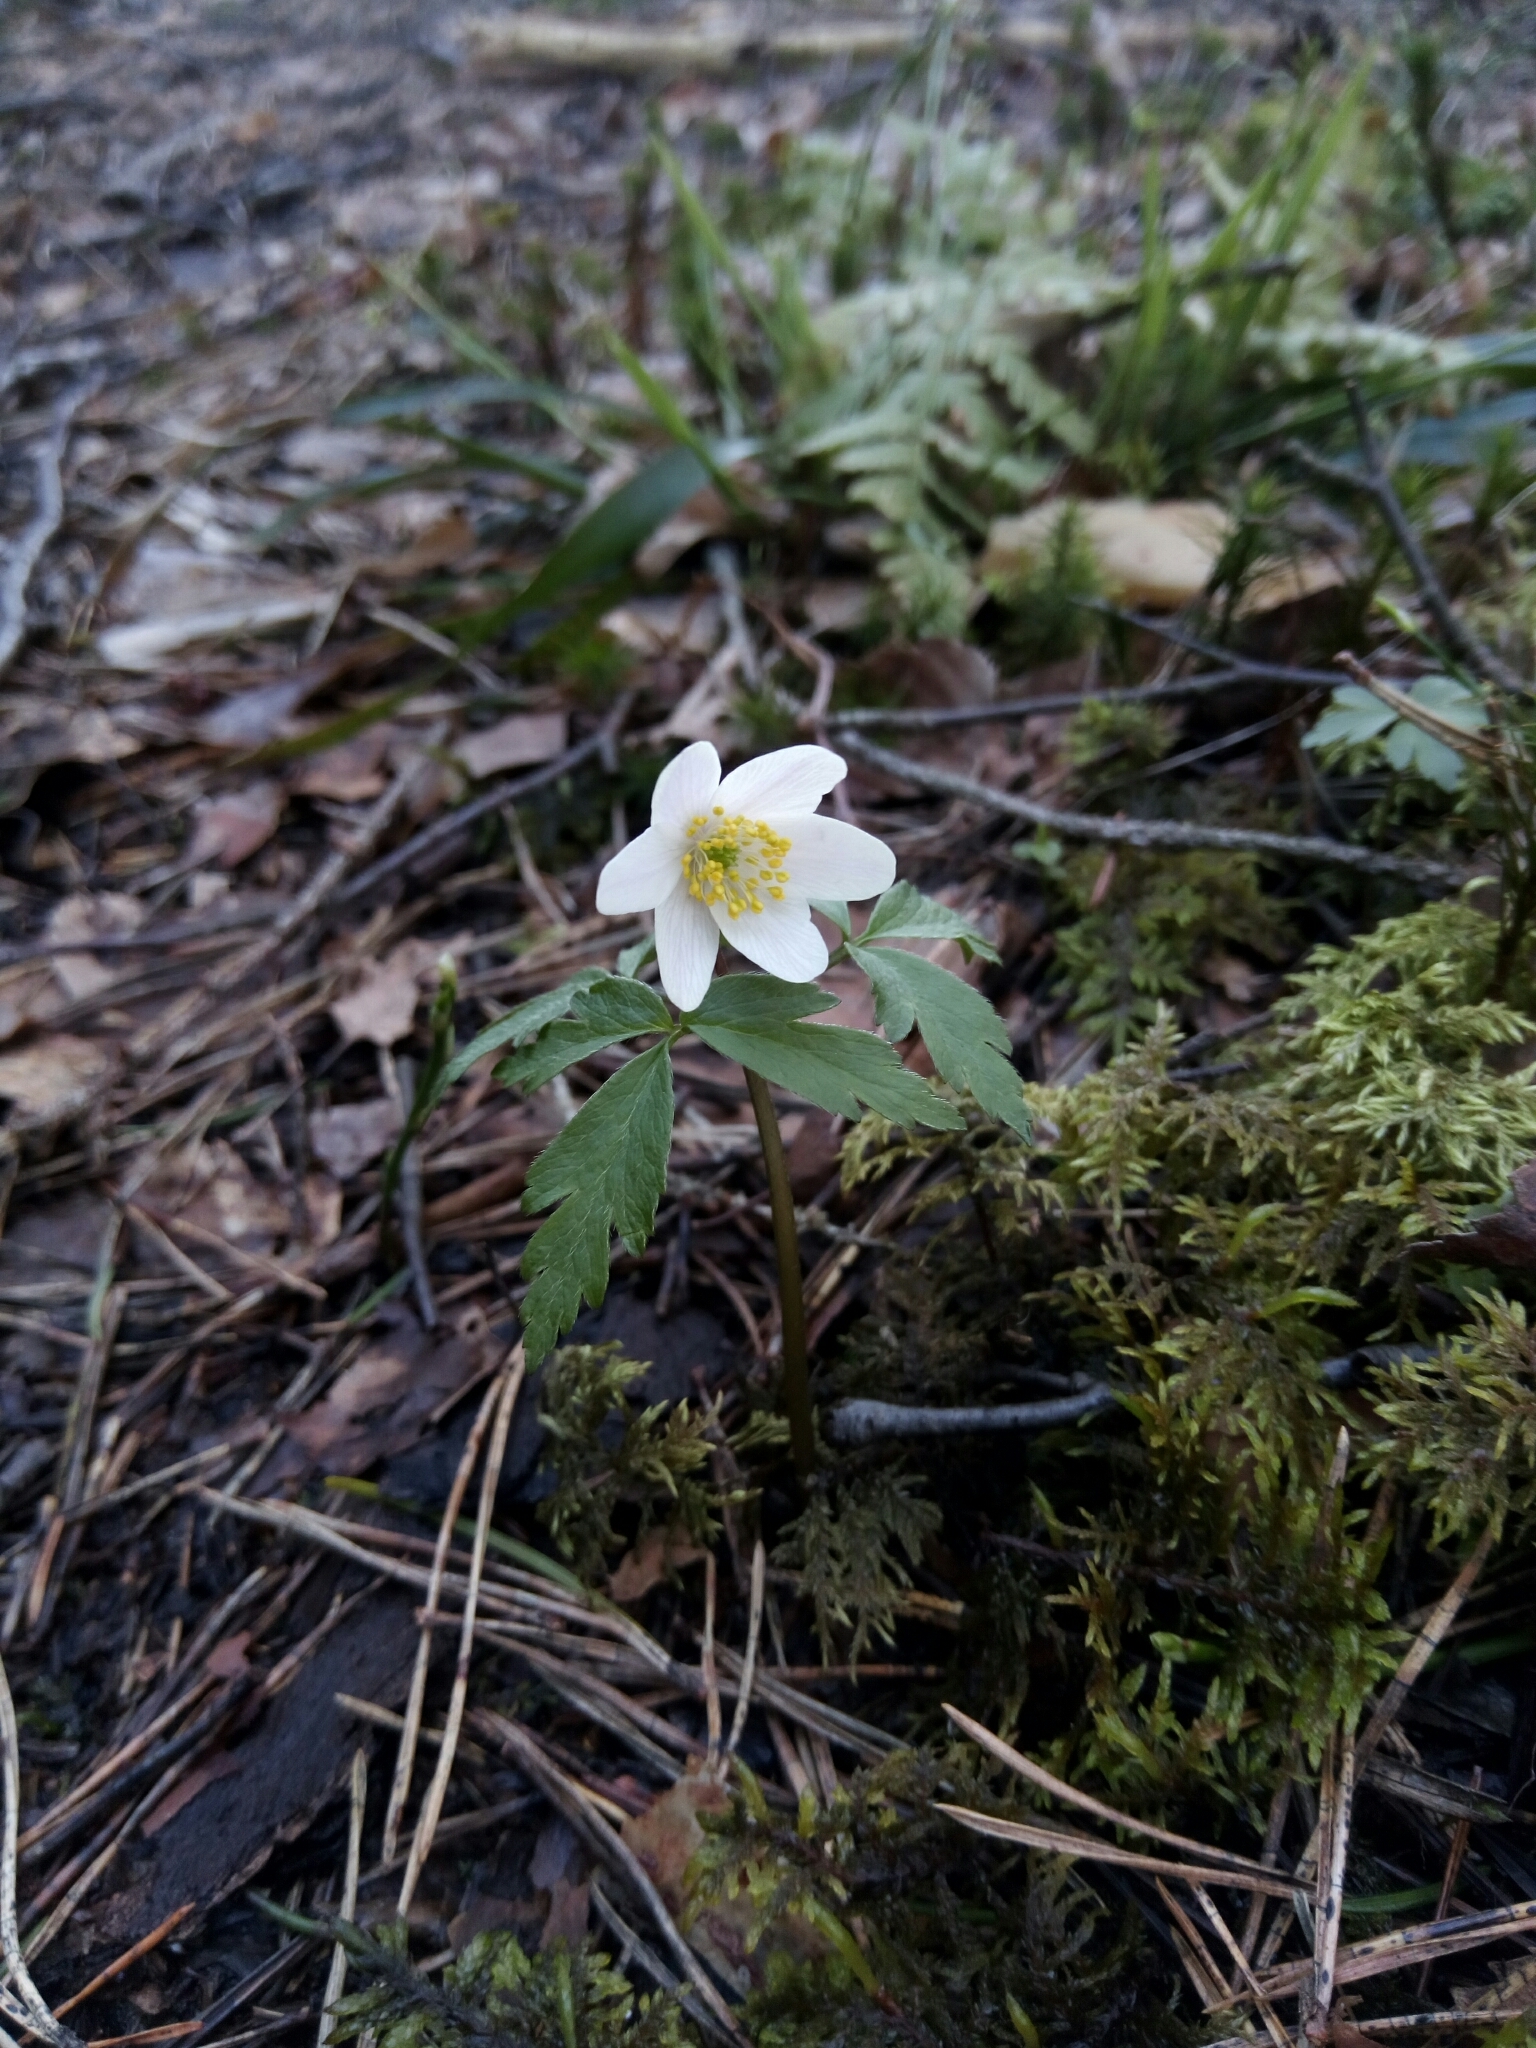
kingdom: Plantae
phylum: Tracheophyta
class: Magnoliopsida
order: Ranunculales
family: Ranunculaceae
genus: Anemone
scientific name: Anemone nemorosa
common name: Wood anemone
